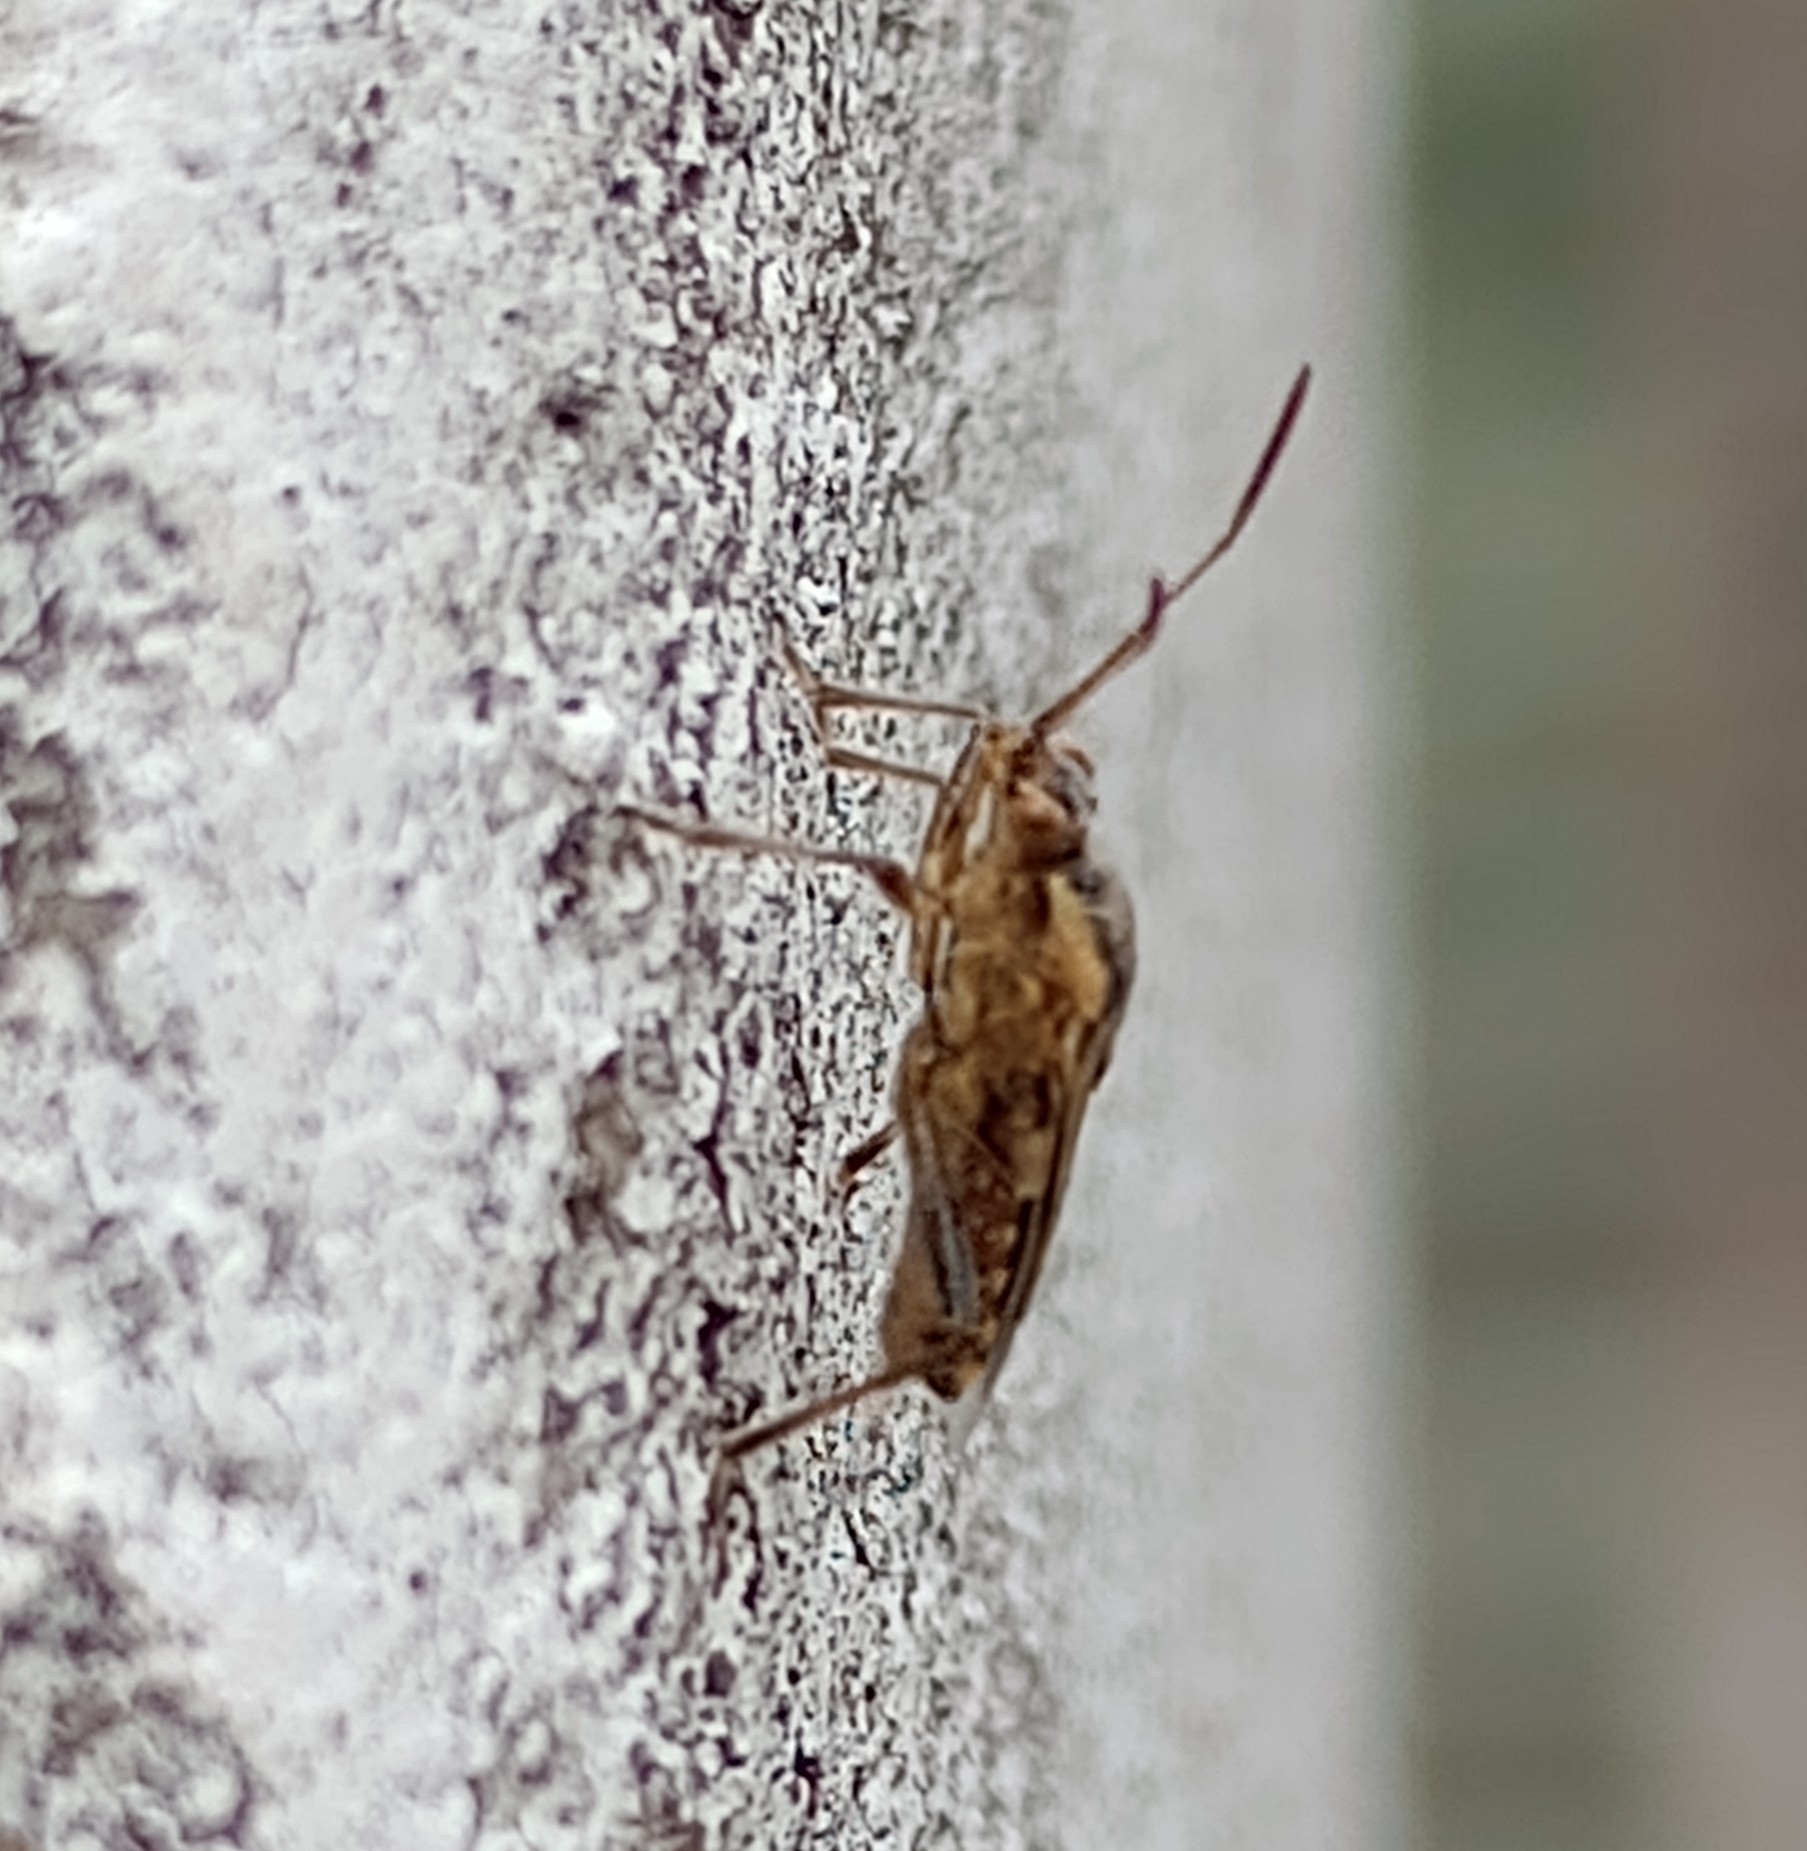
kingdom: Animalia
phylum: Arthropoda
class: Insecta
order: Hemiptera
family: Rhopalidae
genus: Liorhyssus
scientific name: Liorhyssus hyalinus
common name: Scentless plant bug
